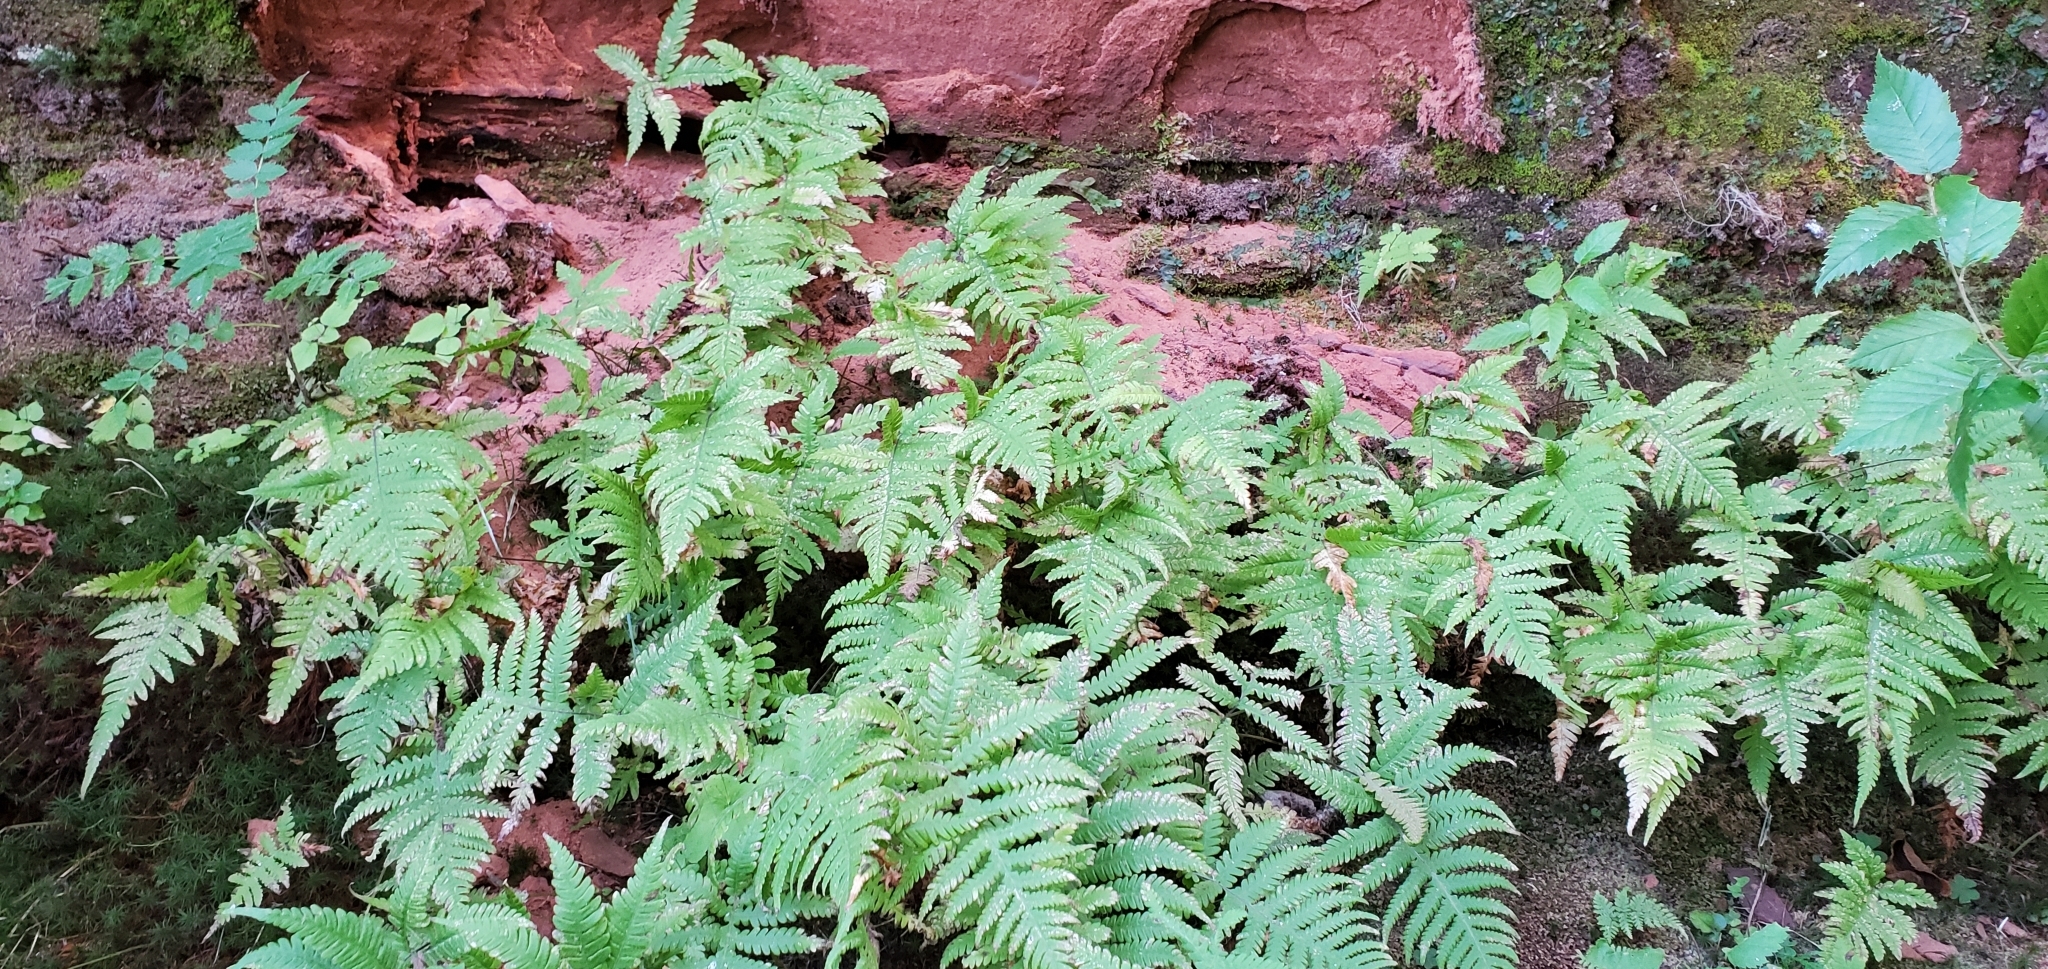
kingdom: Plantae
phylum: Tracheophyta
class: Polypodiopsida
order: Polypodiales
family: Thelypteridaceae
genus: Phegopteris
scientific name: Phegopteris connectilis
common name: Beech fern
